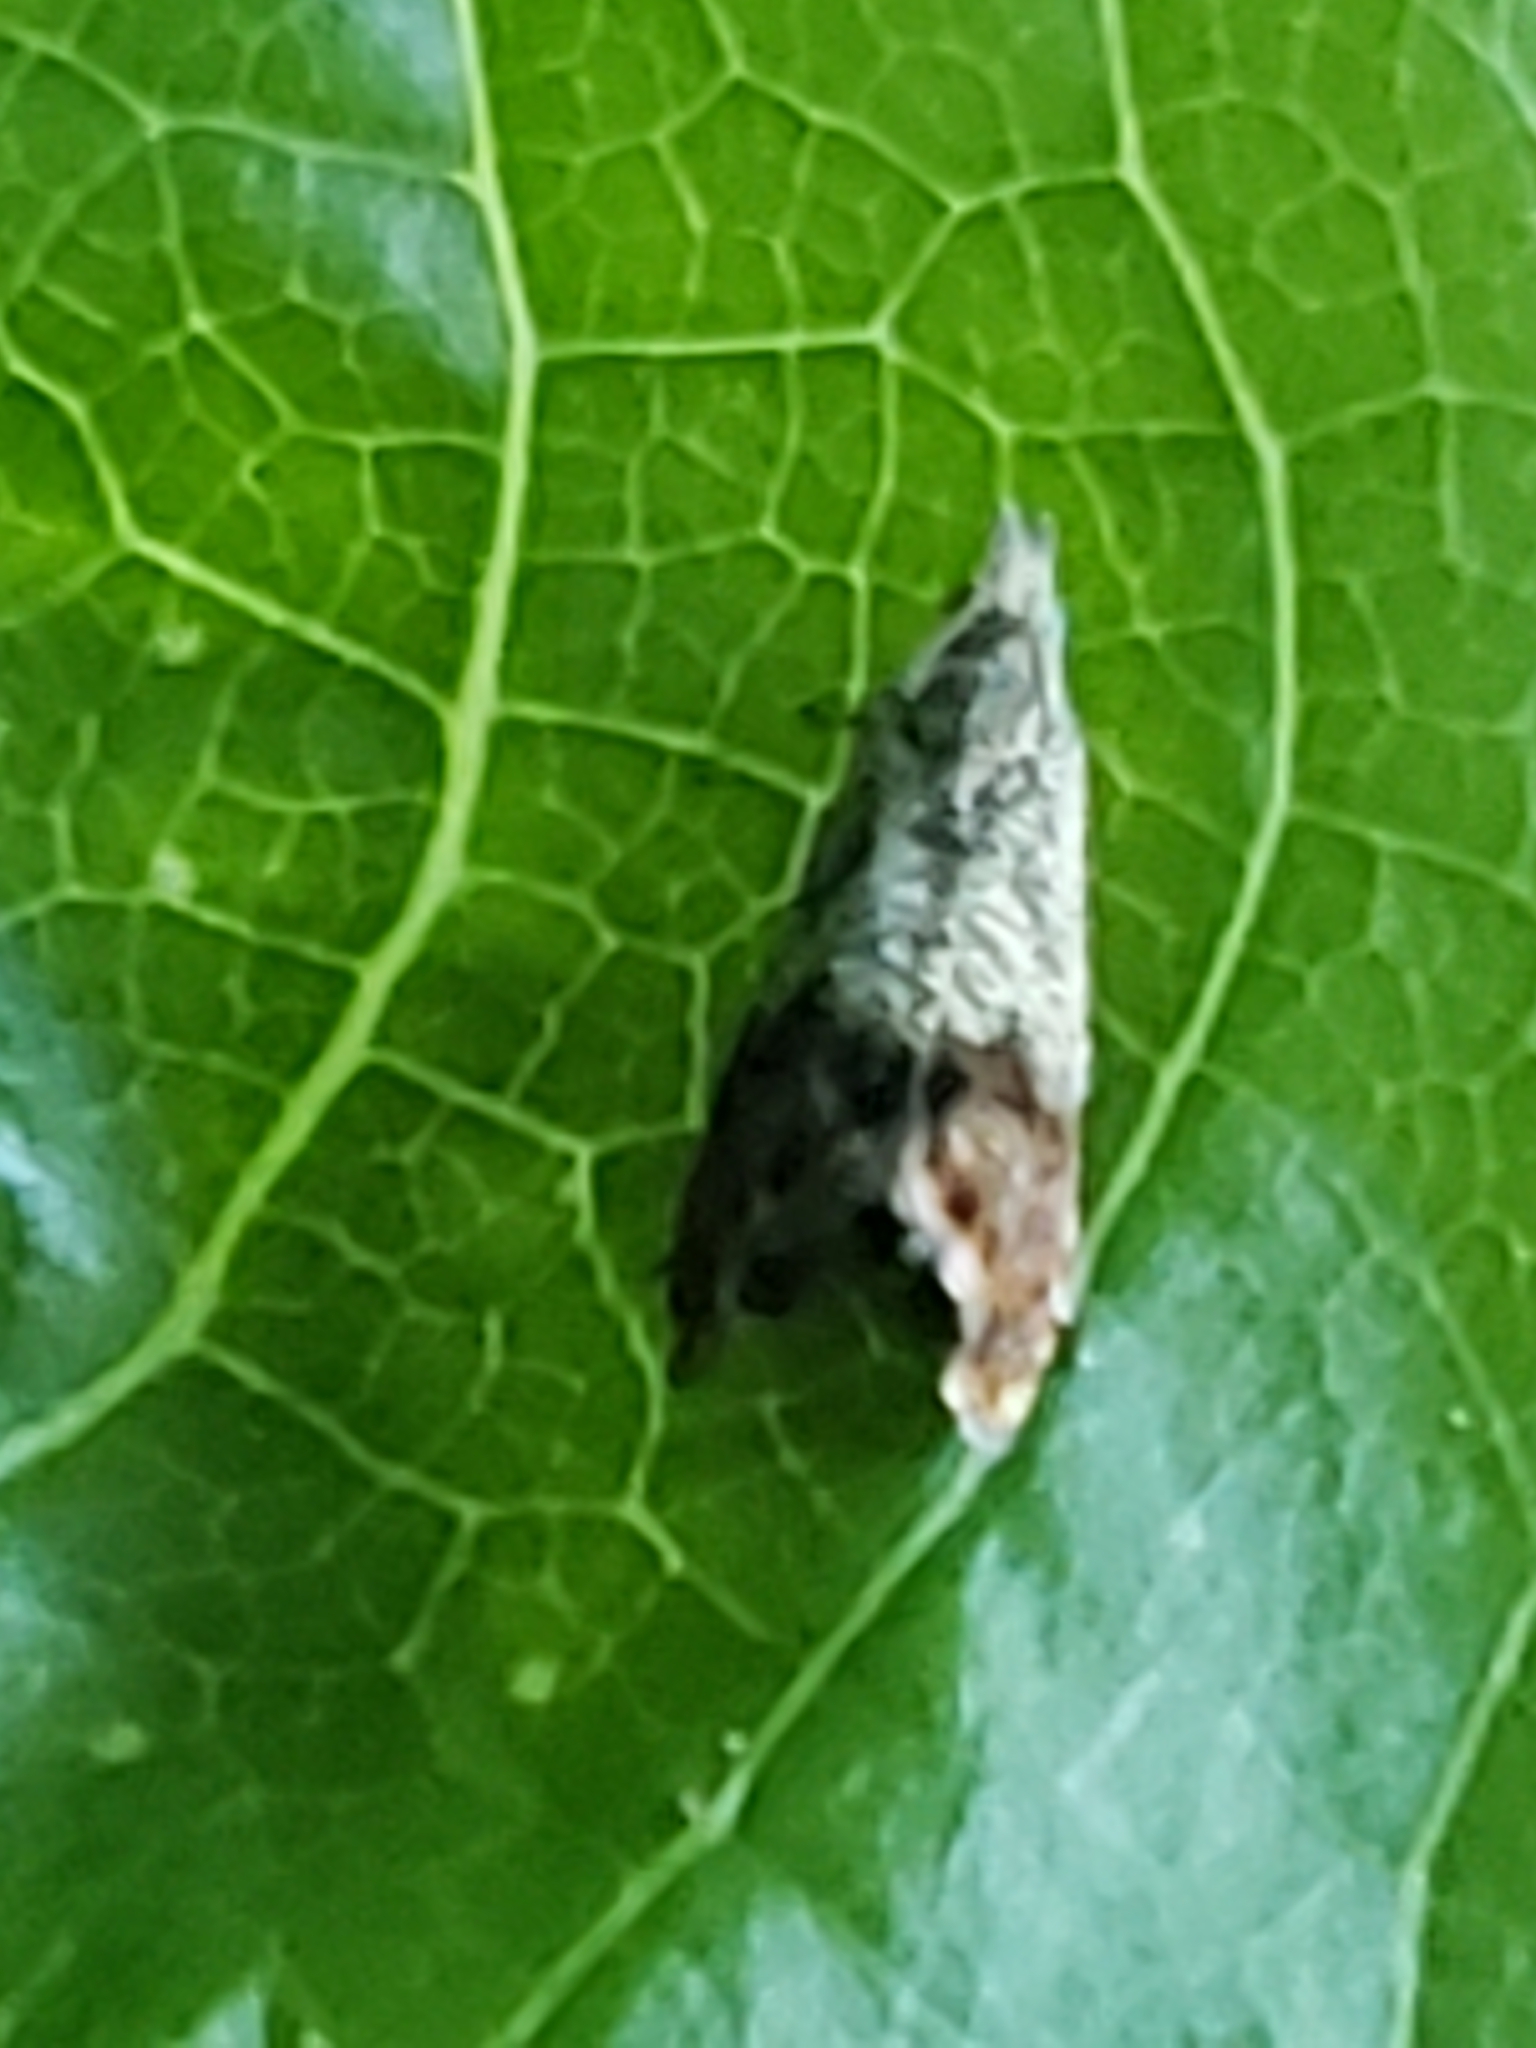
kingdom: Animalia
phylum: Arthropoda
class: Insecta
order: Lepidoptera
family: Tortricidae
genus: Talponia
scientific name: Talponia plummeriana
